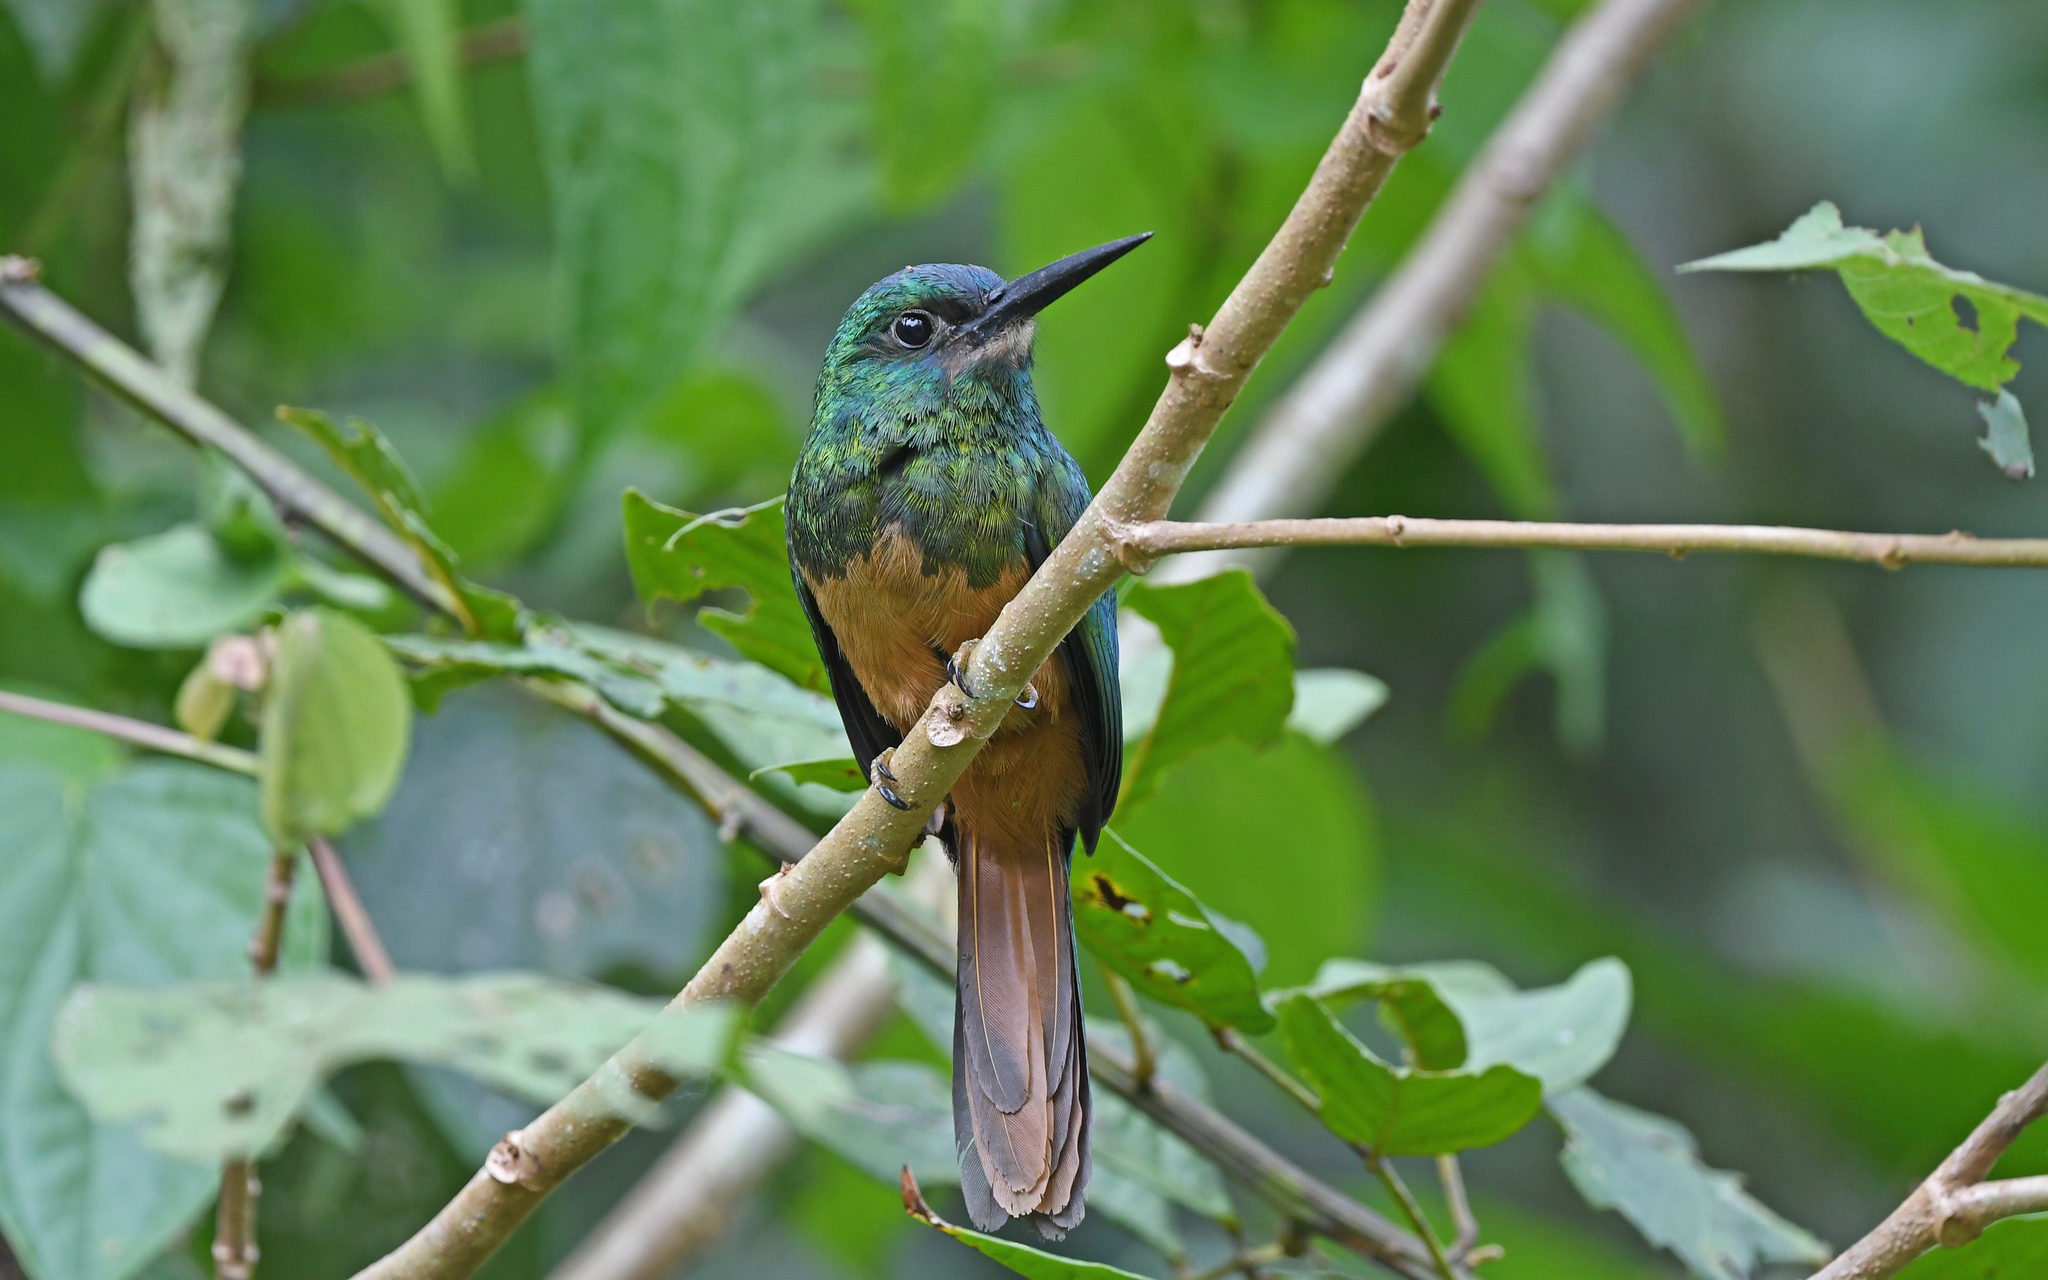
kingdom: Animalia
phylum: Chordata
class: Aves
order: Piciformes
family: Galbulidae
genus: Galbula
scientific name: Galbula cyanescens
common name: Bluish-fronted jacamar
